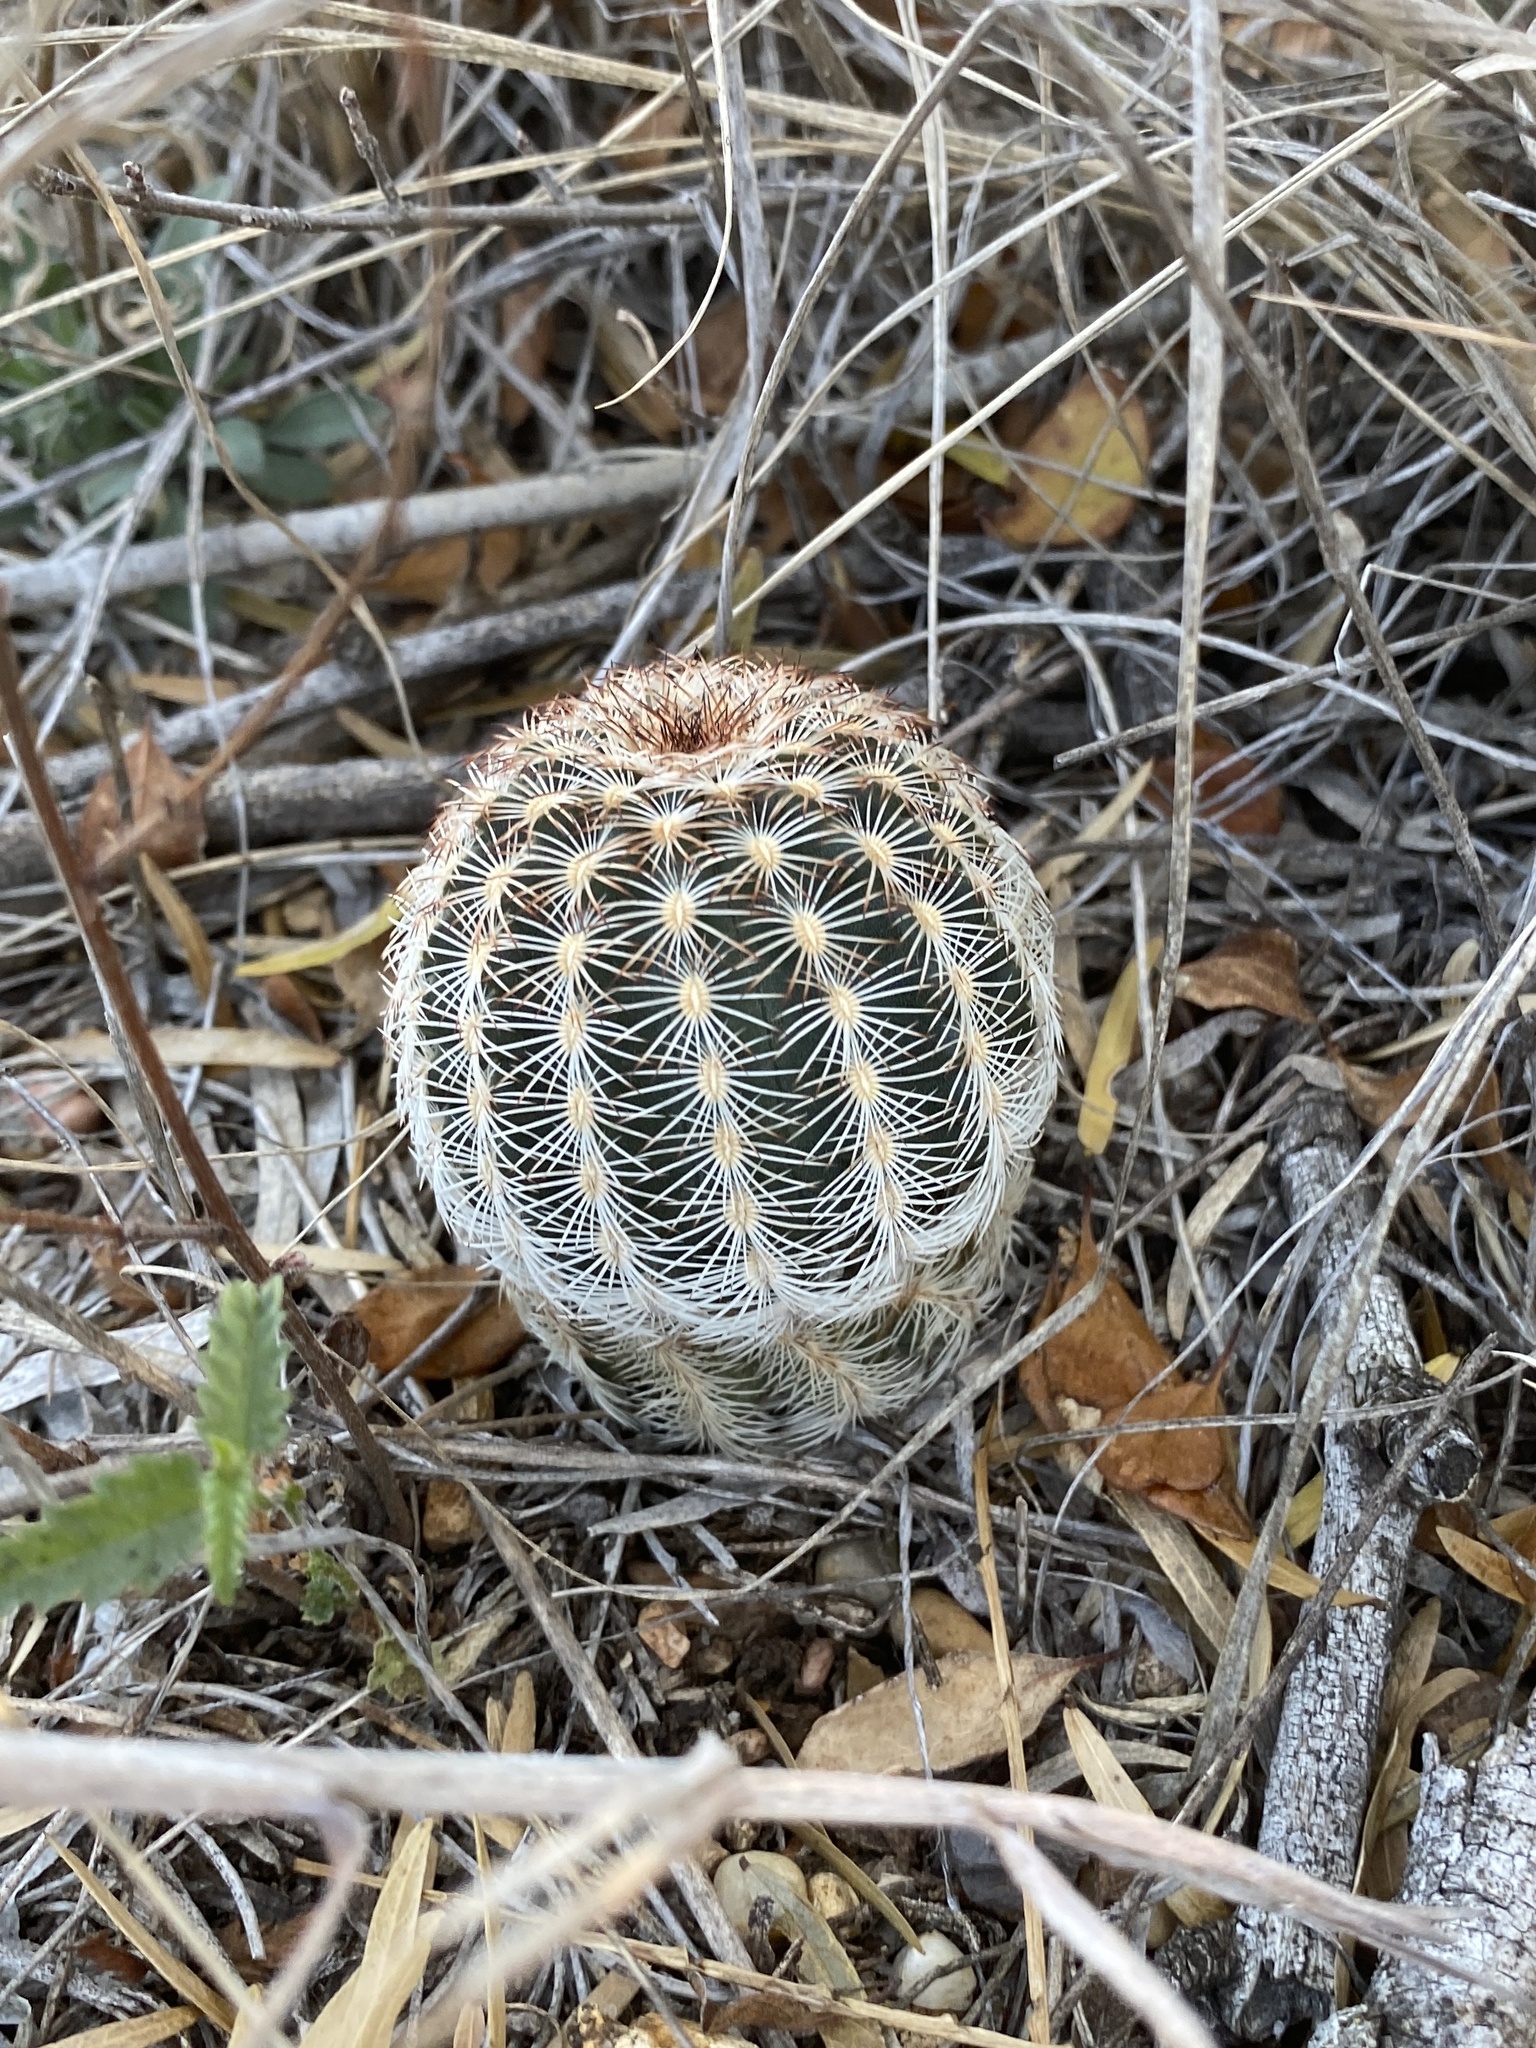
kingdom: Plantae
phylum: Tracheophyta
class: Magnoliopsida
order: Caryophyllales
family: Cactaceae
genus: Echinocereus
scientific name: Echinocereus reichenbachii
